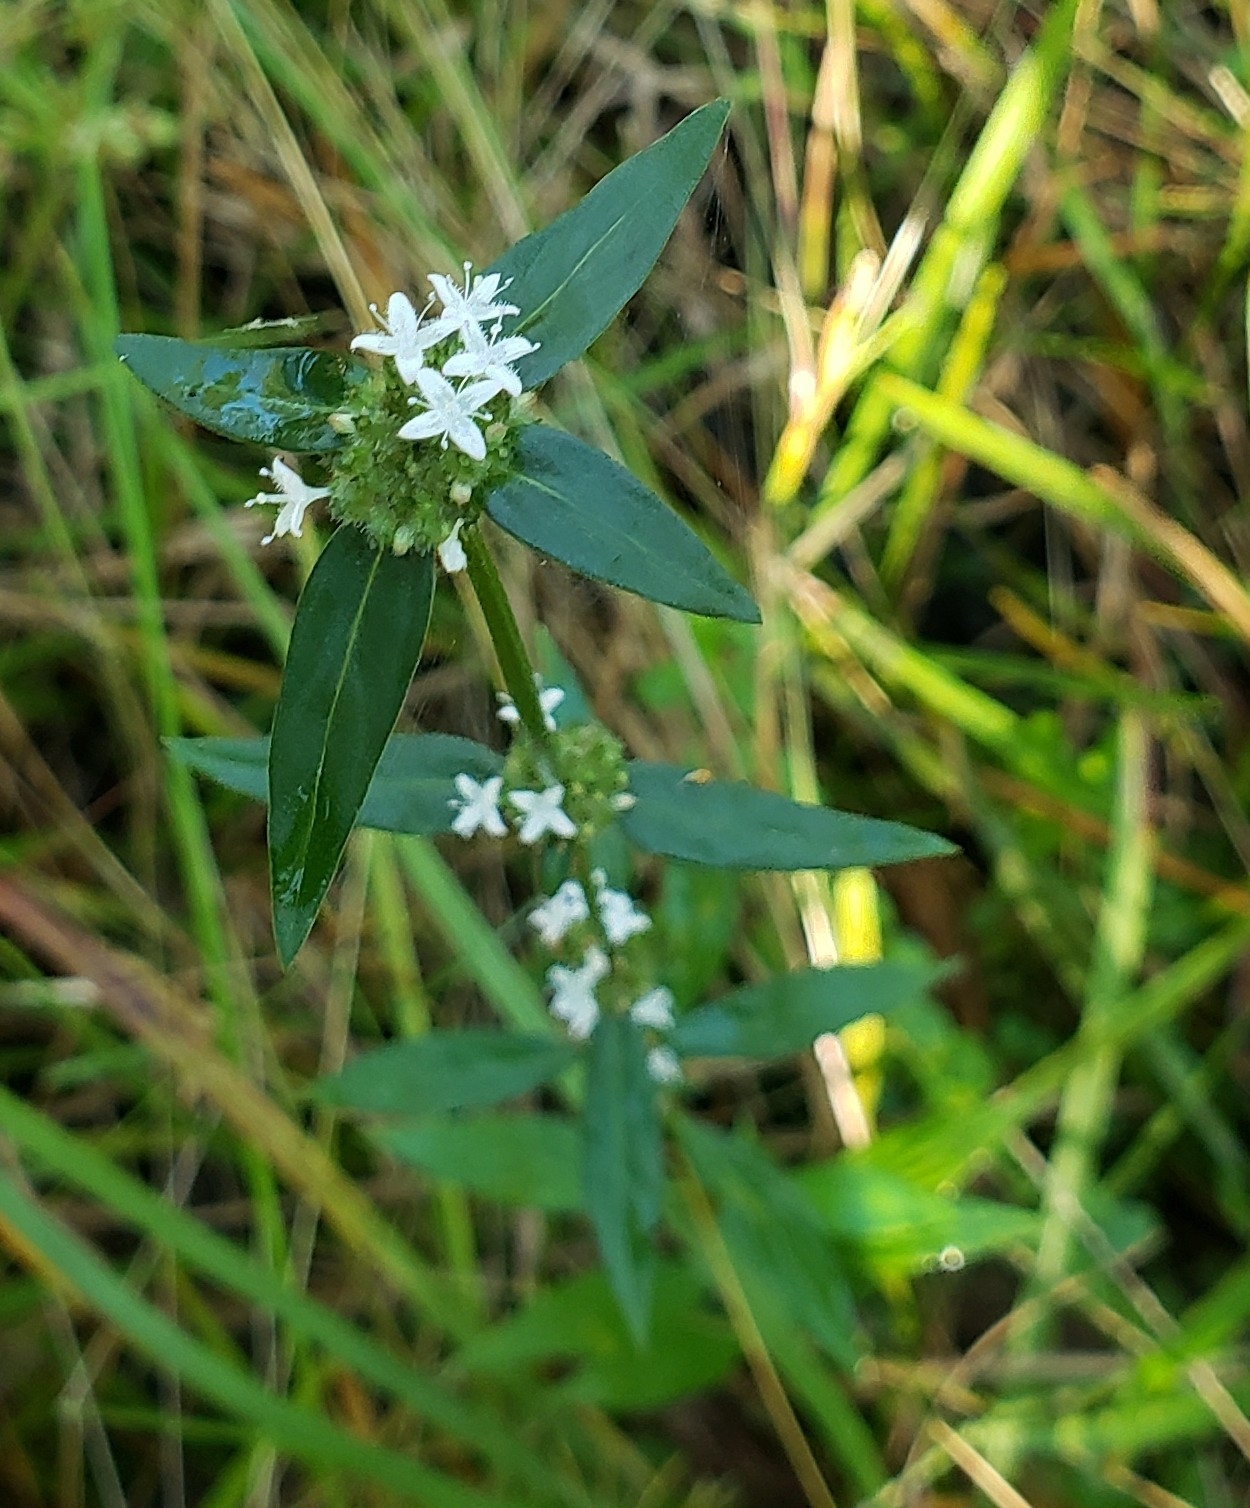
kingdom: Plantae
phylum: Tracheophyta
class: Magnoliopsida
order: Gentianales
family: Rubiaceae
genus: Spermacoce
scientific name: Spermacoce remota
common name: Woodland false buttonweed
